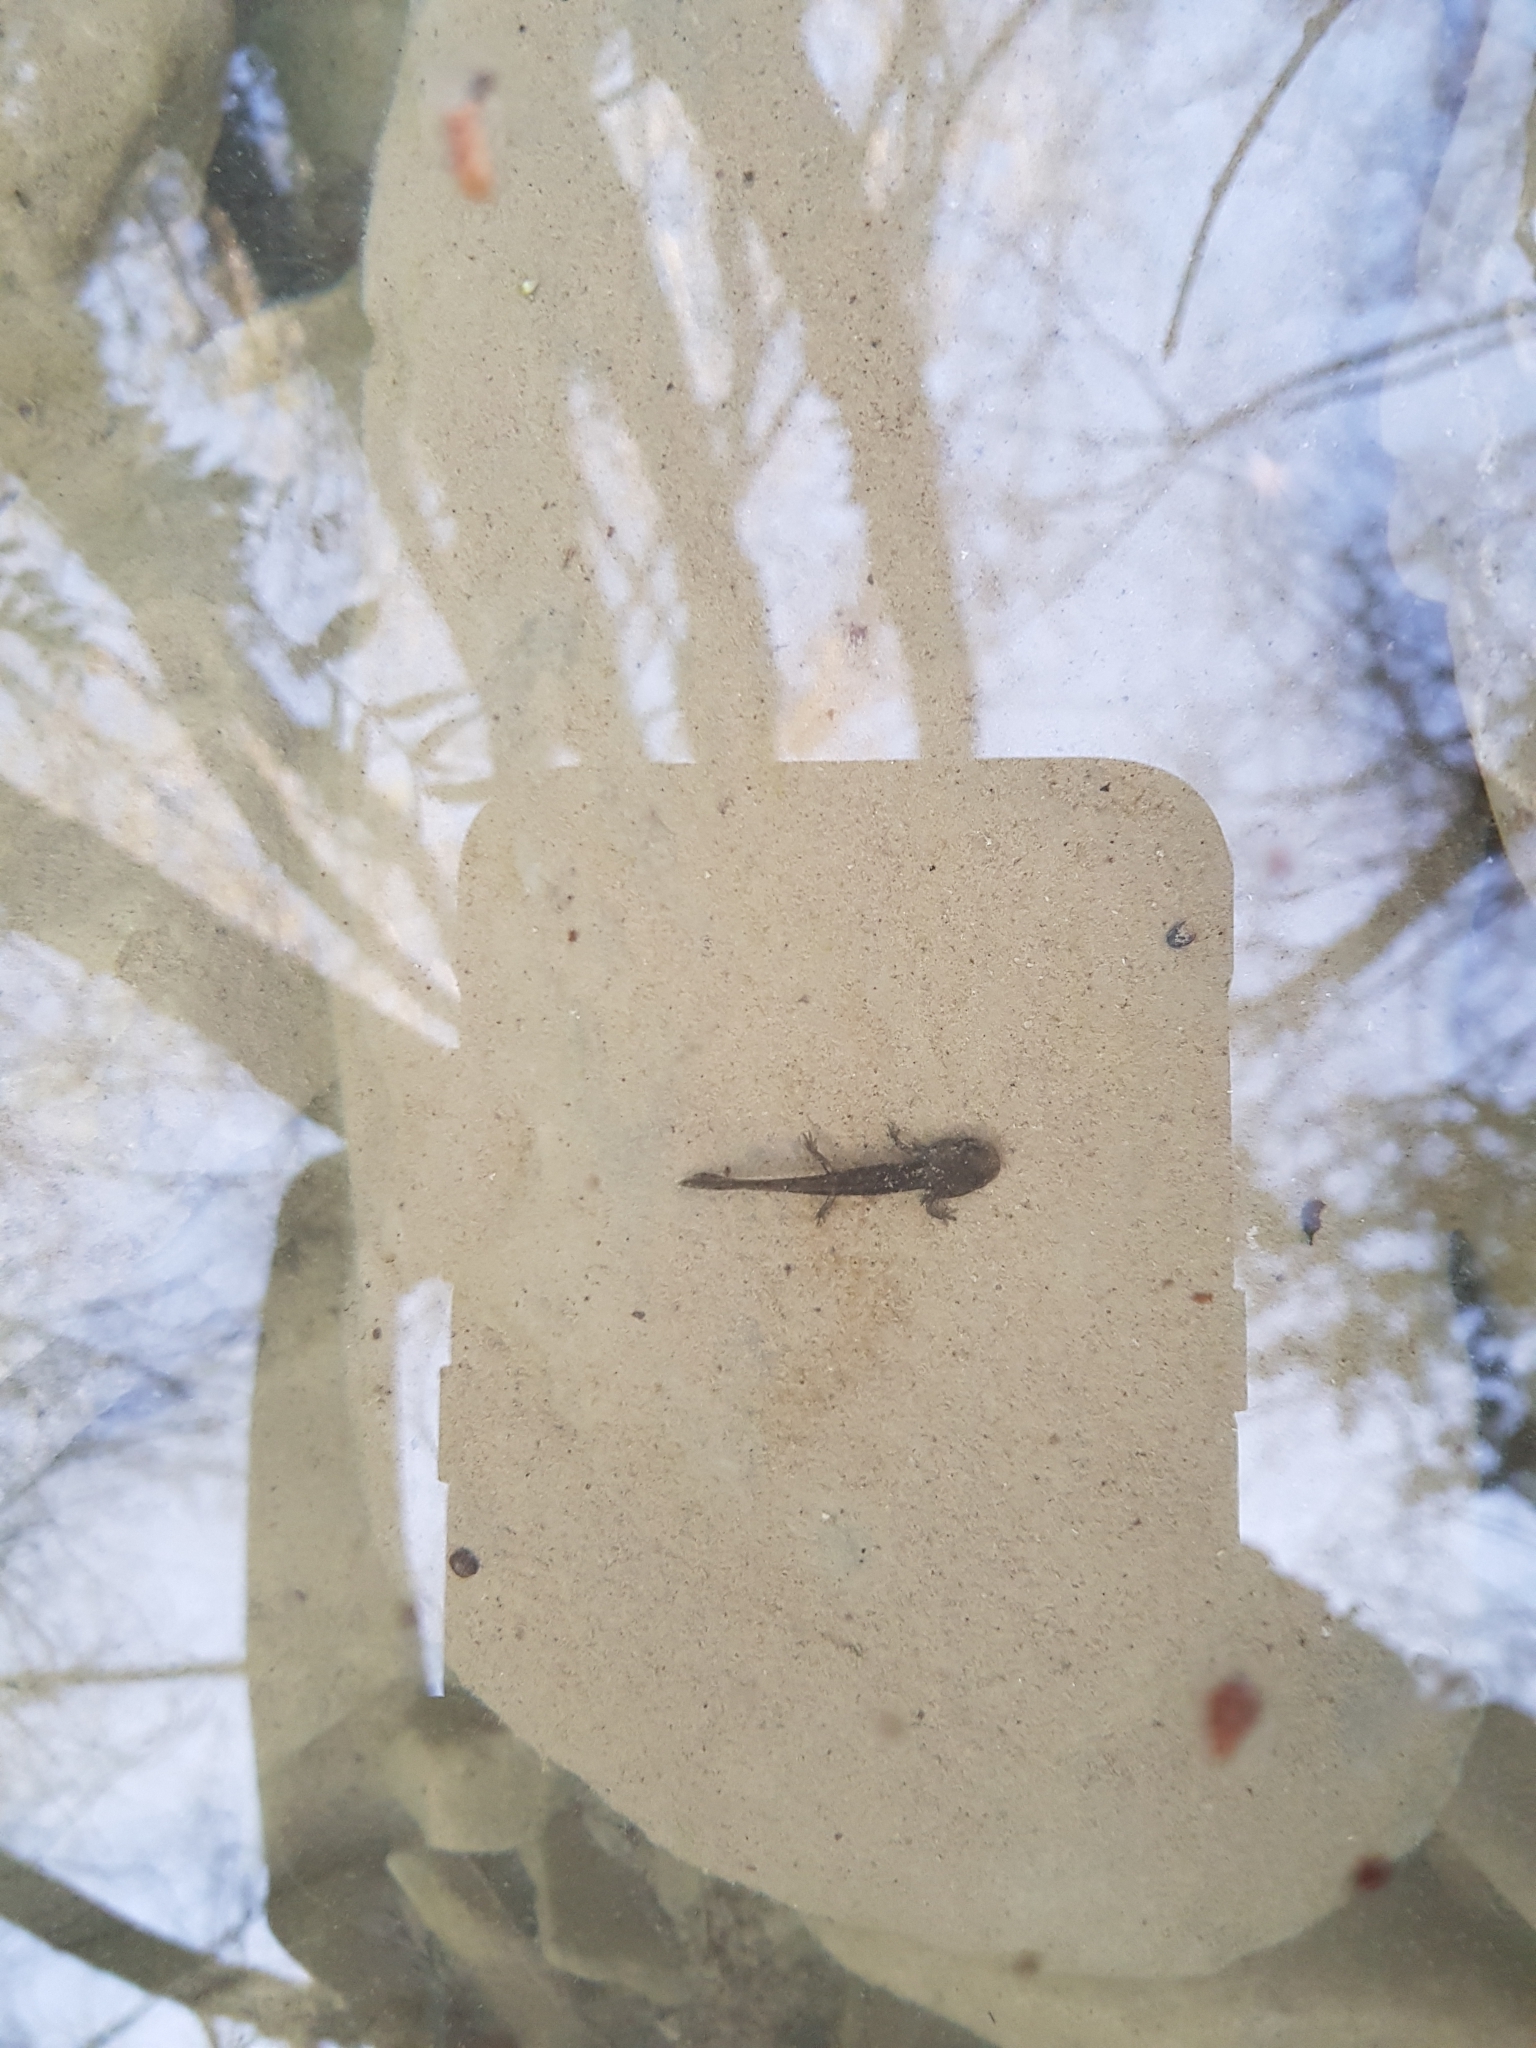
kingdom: Animalia
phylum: Chordata
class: Amphibia
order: Caudata
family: Salamandridae
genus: Salamandra
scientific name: Salamandra salamandra
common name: Fire salamander
